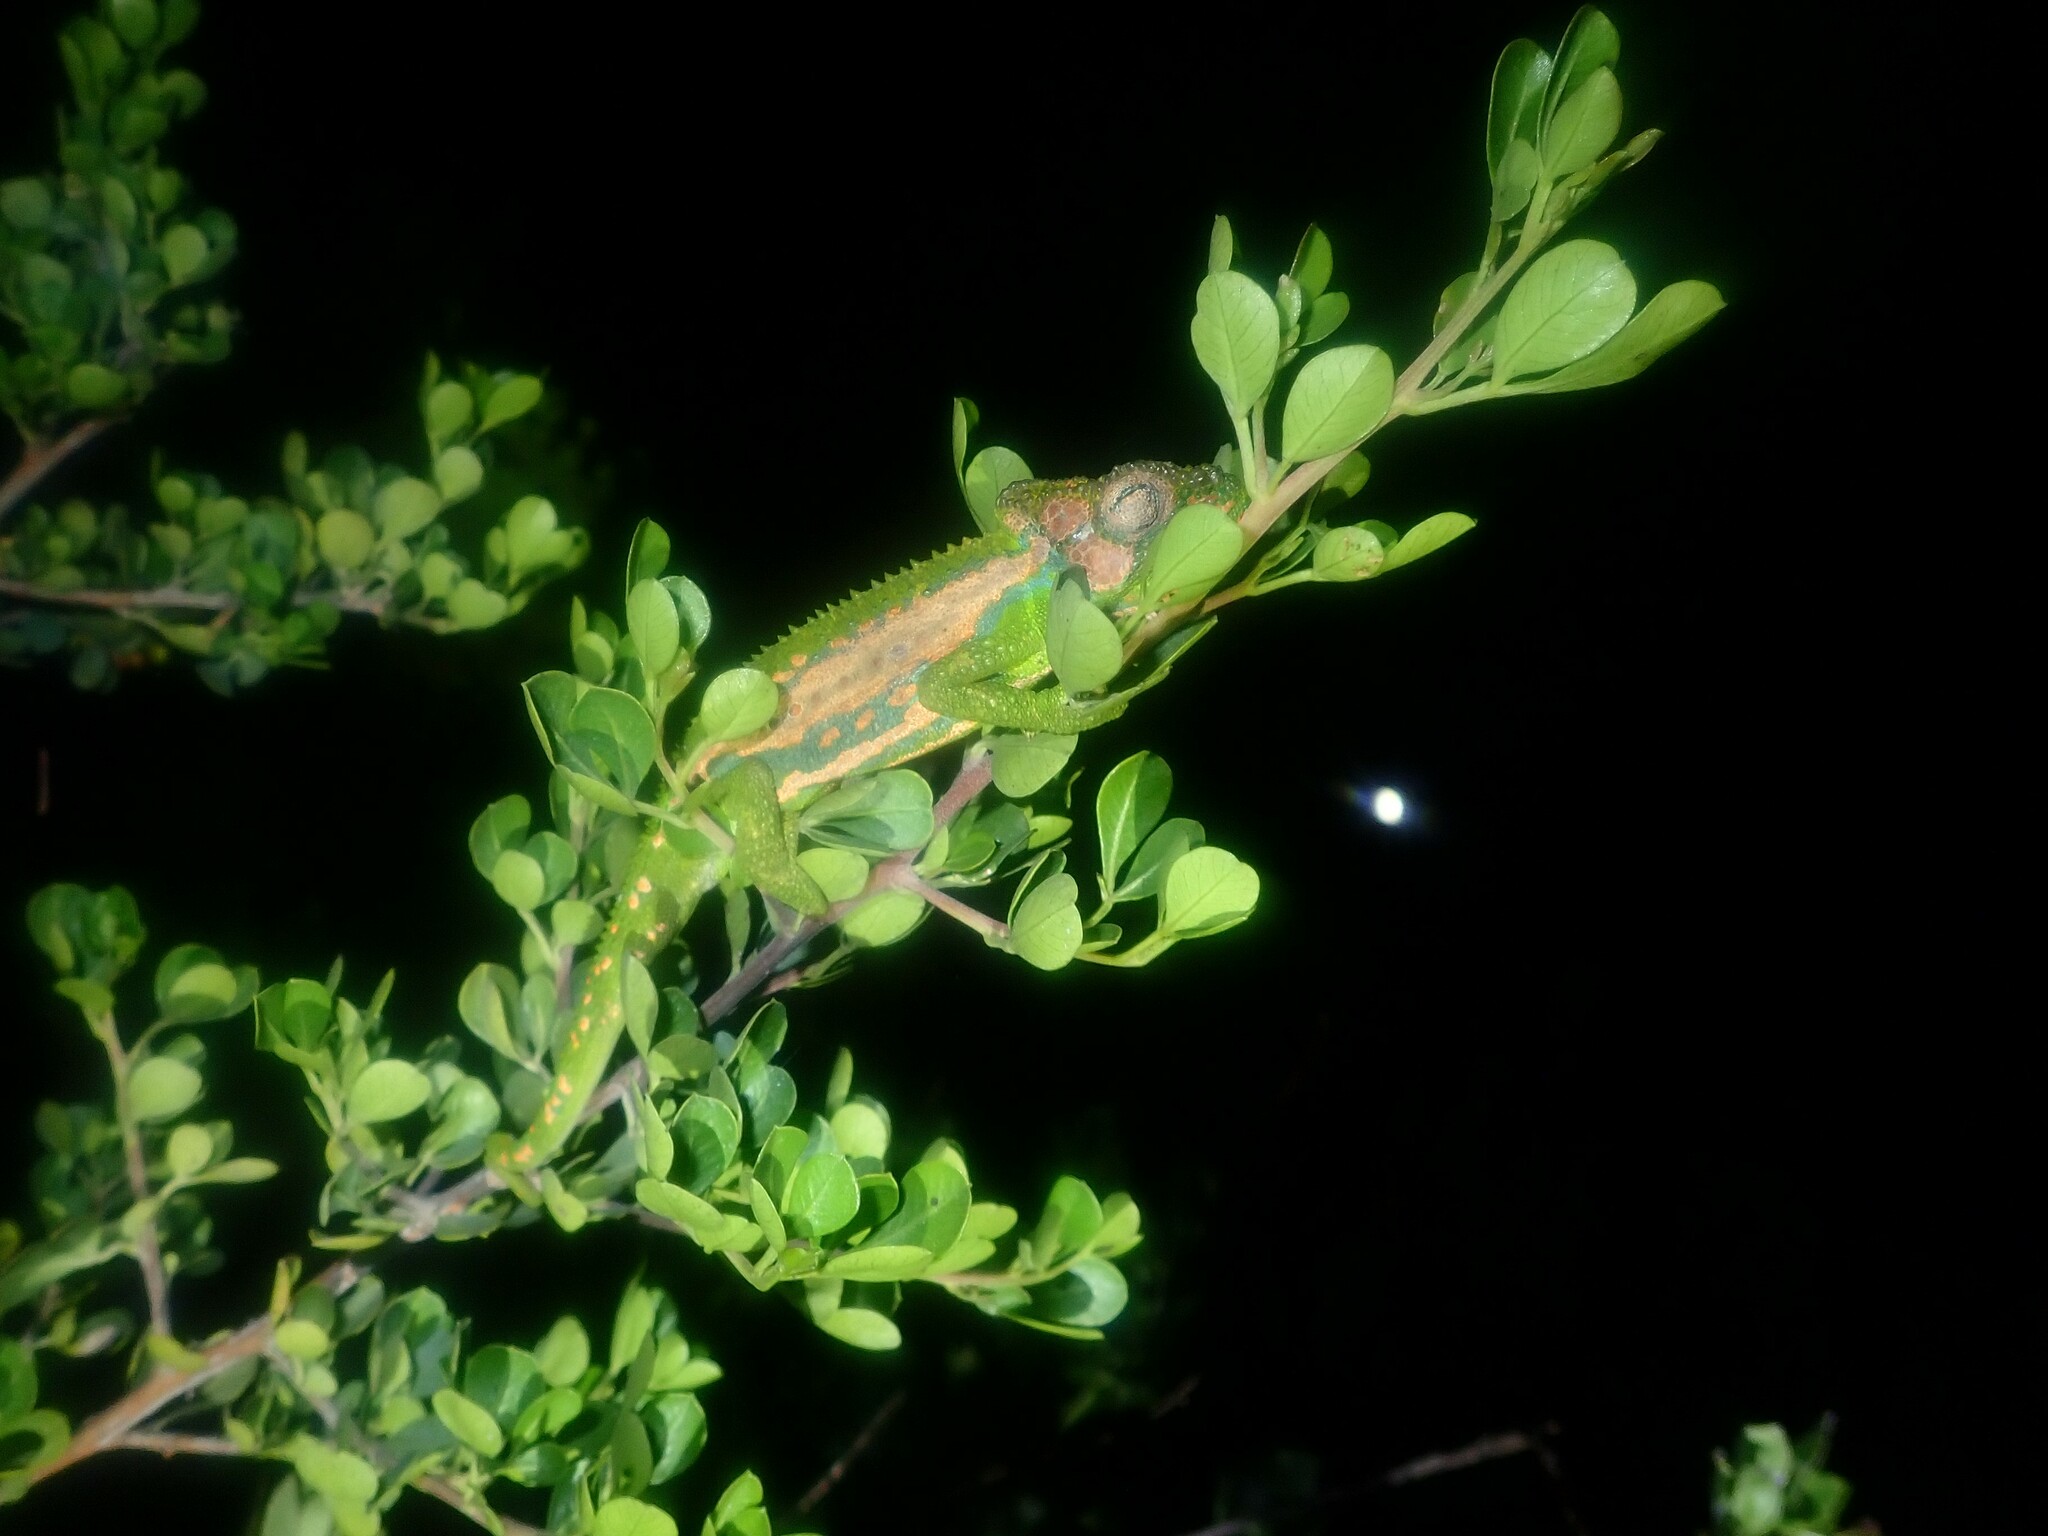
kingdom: Animalia
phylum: Chordata
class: Squamata
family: Chamaeleonidae
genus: Bradypodion
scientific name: Bradypodion pumilum
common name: Cape dwarf chameleon
